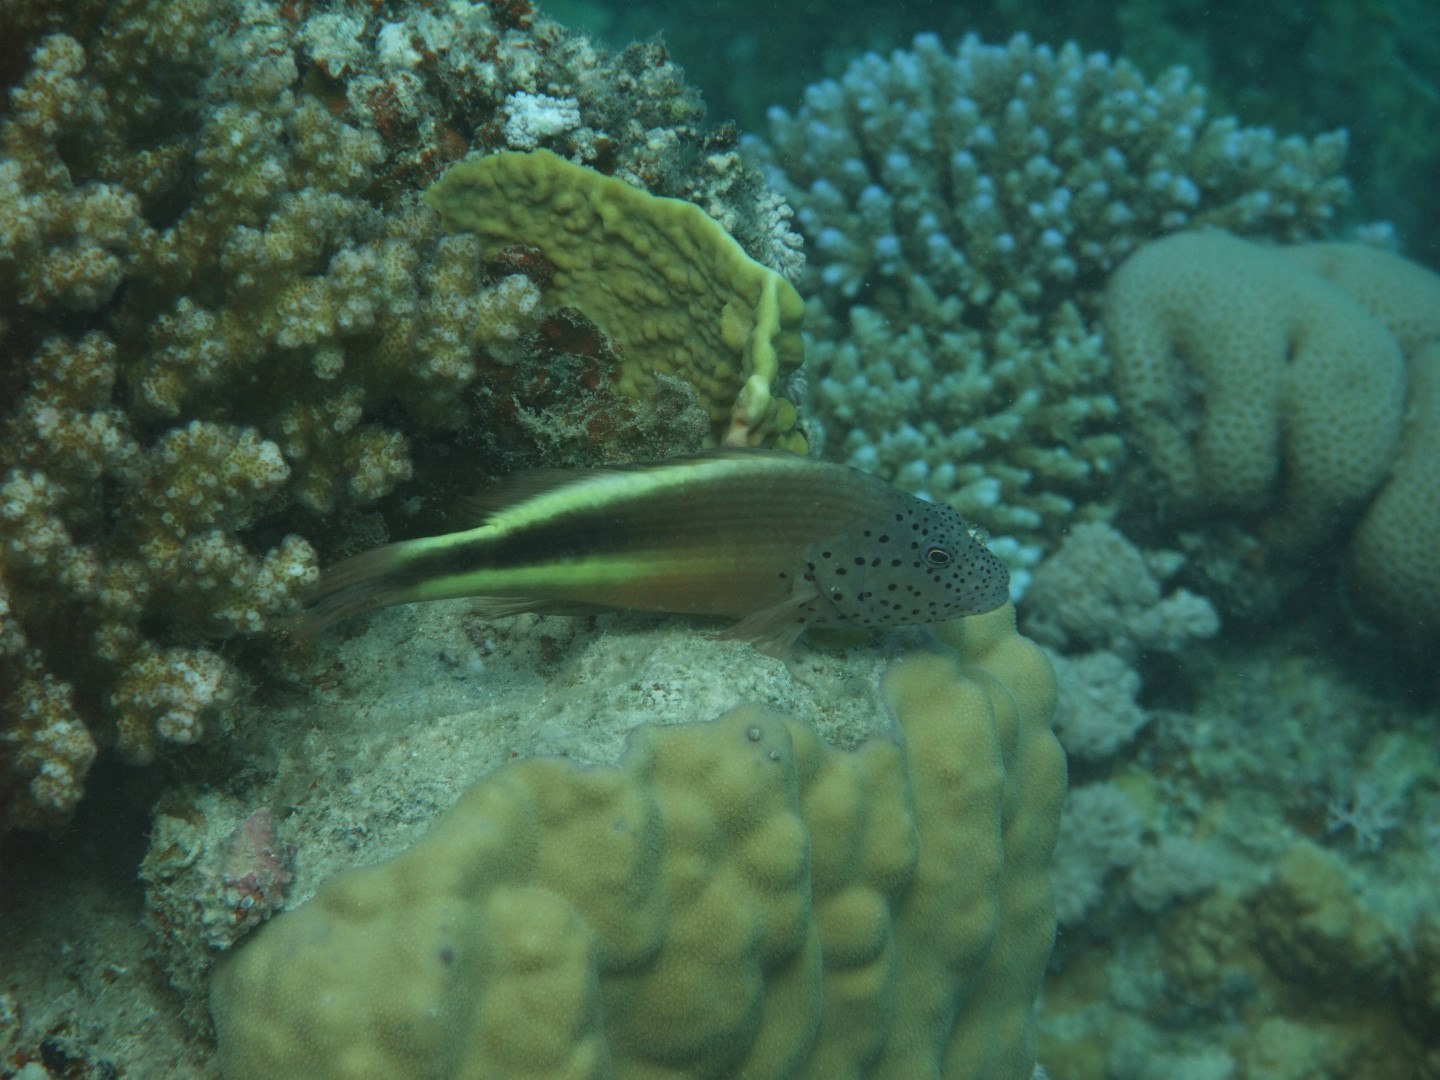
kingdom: Animalia
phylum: Chordata
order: Perciformes
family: Cirrhitidae
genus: Paracirrhites
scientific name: Paracirrhites forsteri
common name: Freckled hawkfish
